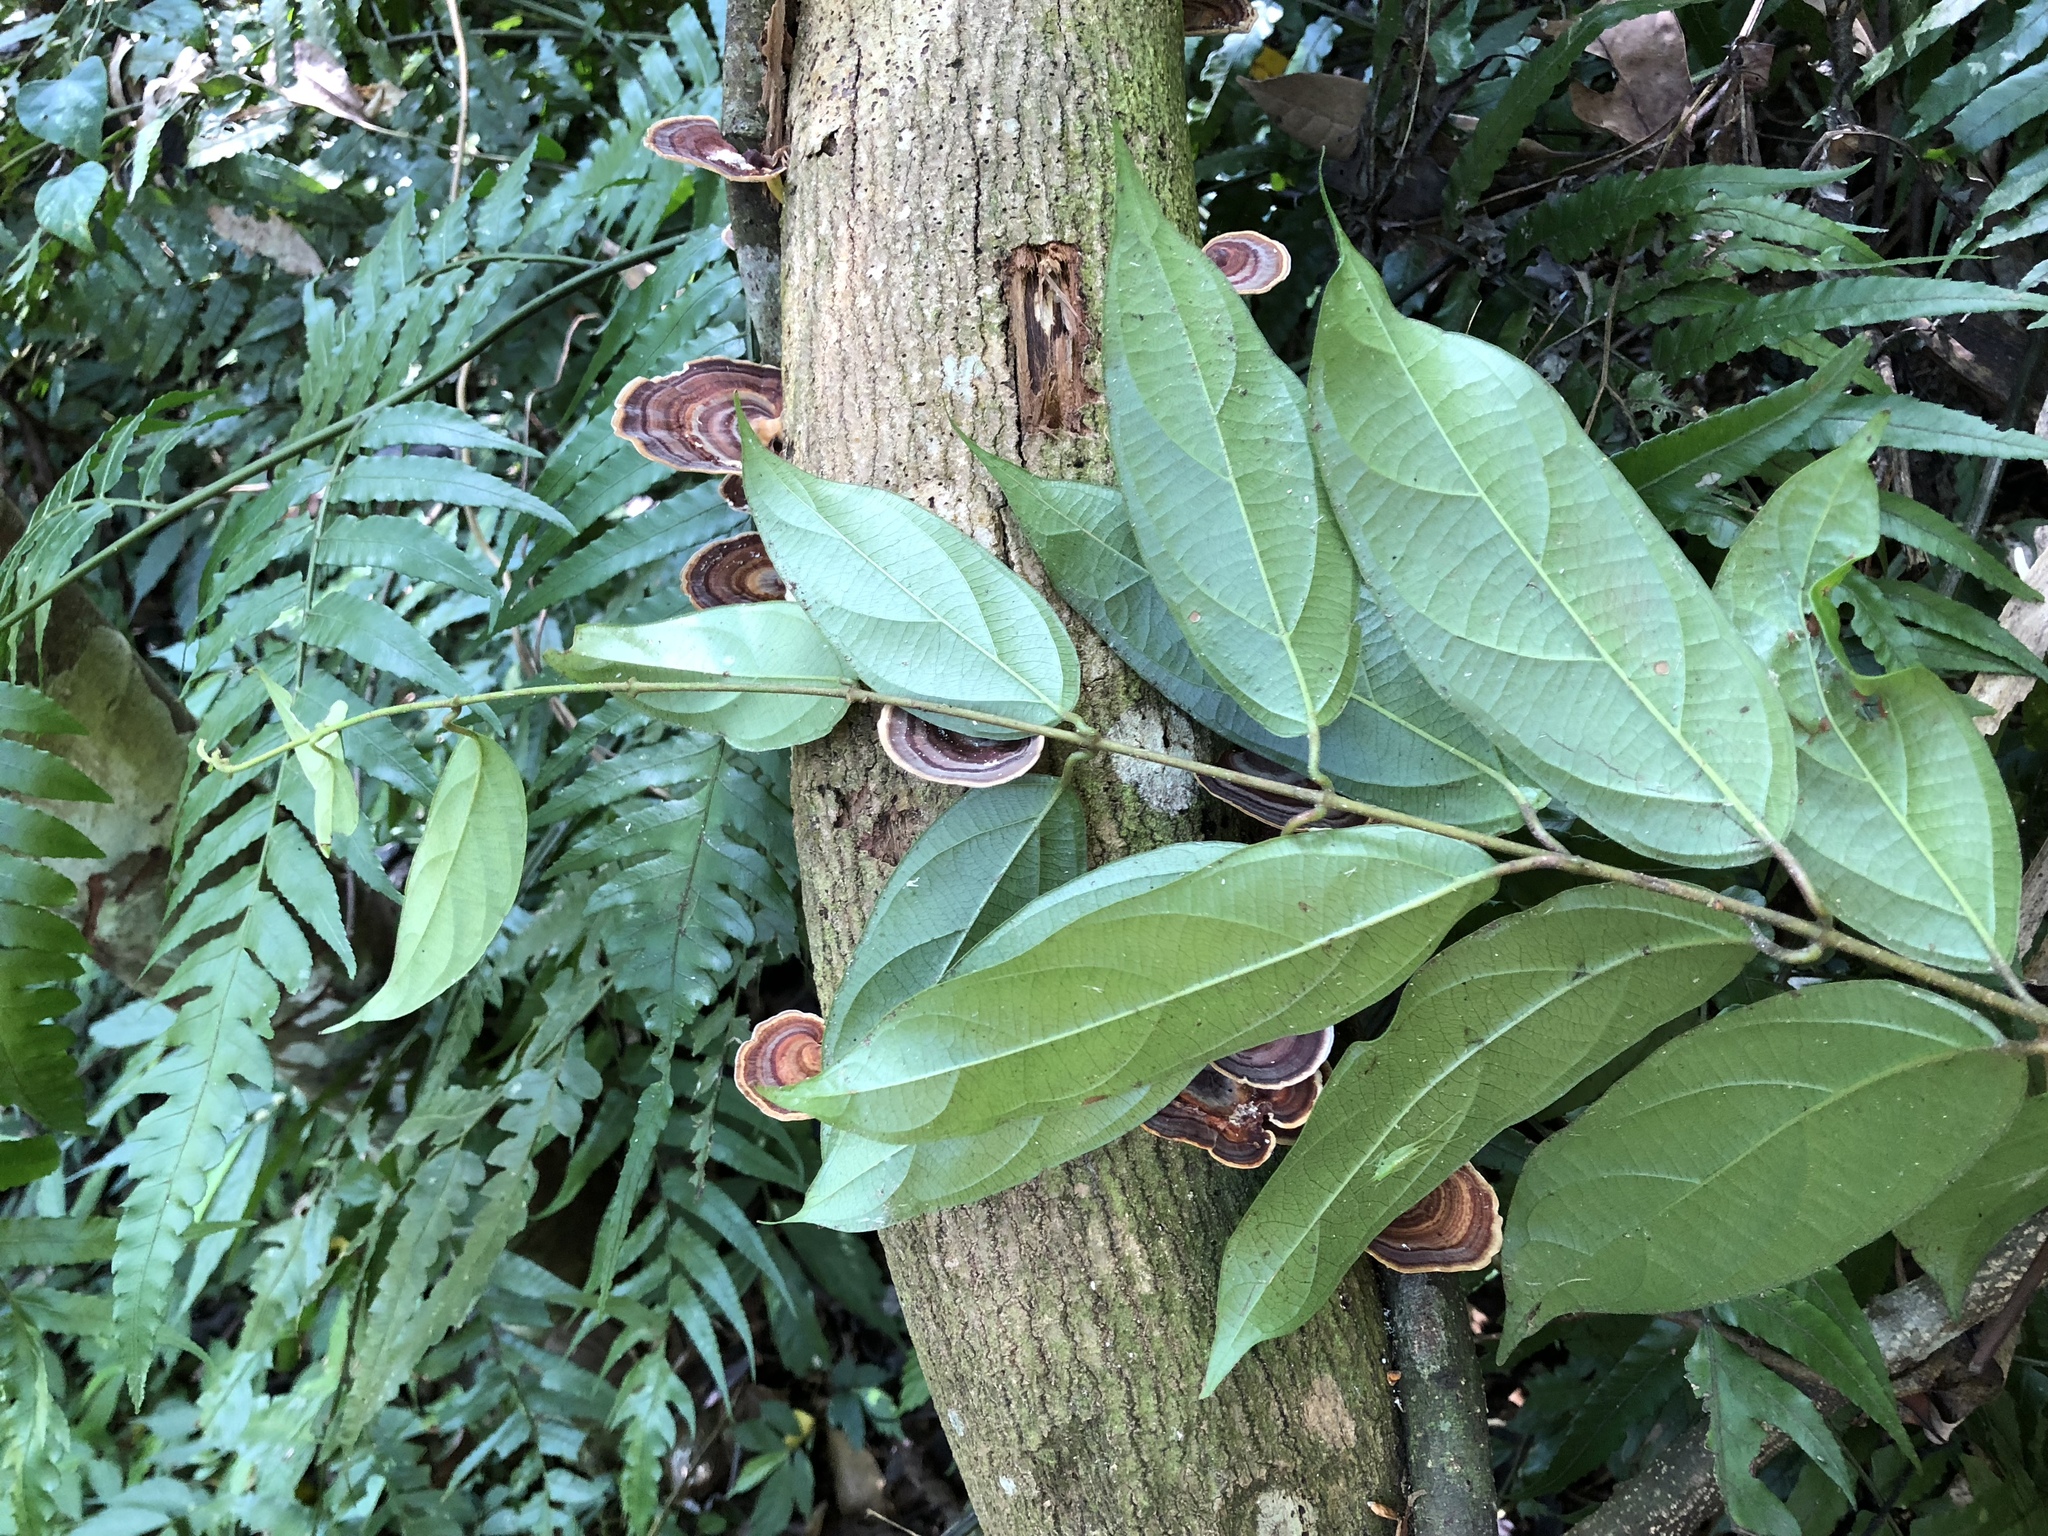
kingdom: Plantae
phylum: Tracheophyta
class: Magnoliopsida
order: Gentianales
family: Apocynaceae
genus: Urceola
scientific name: Urceola micrantha
